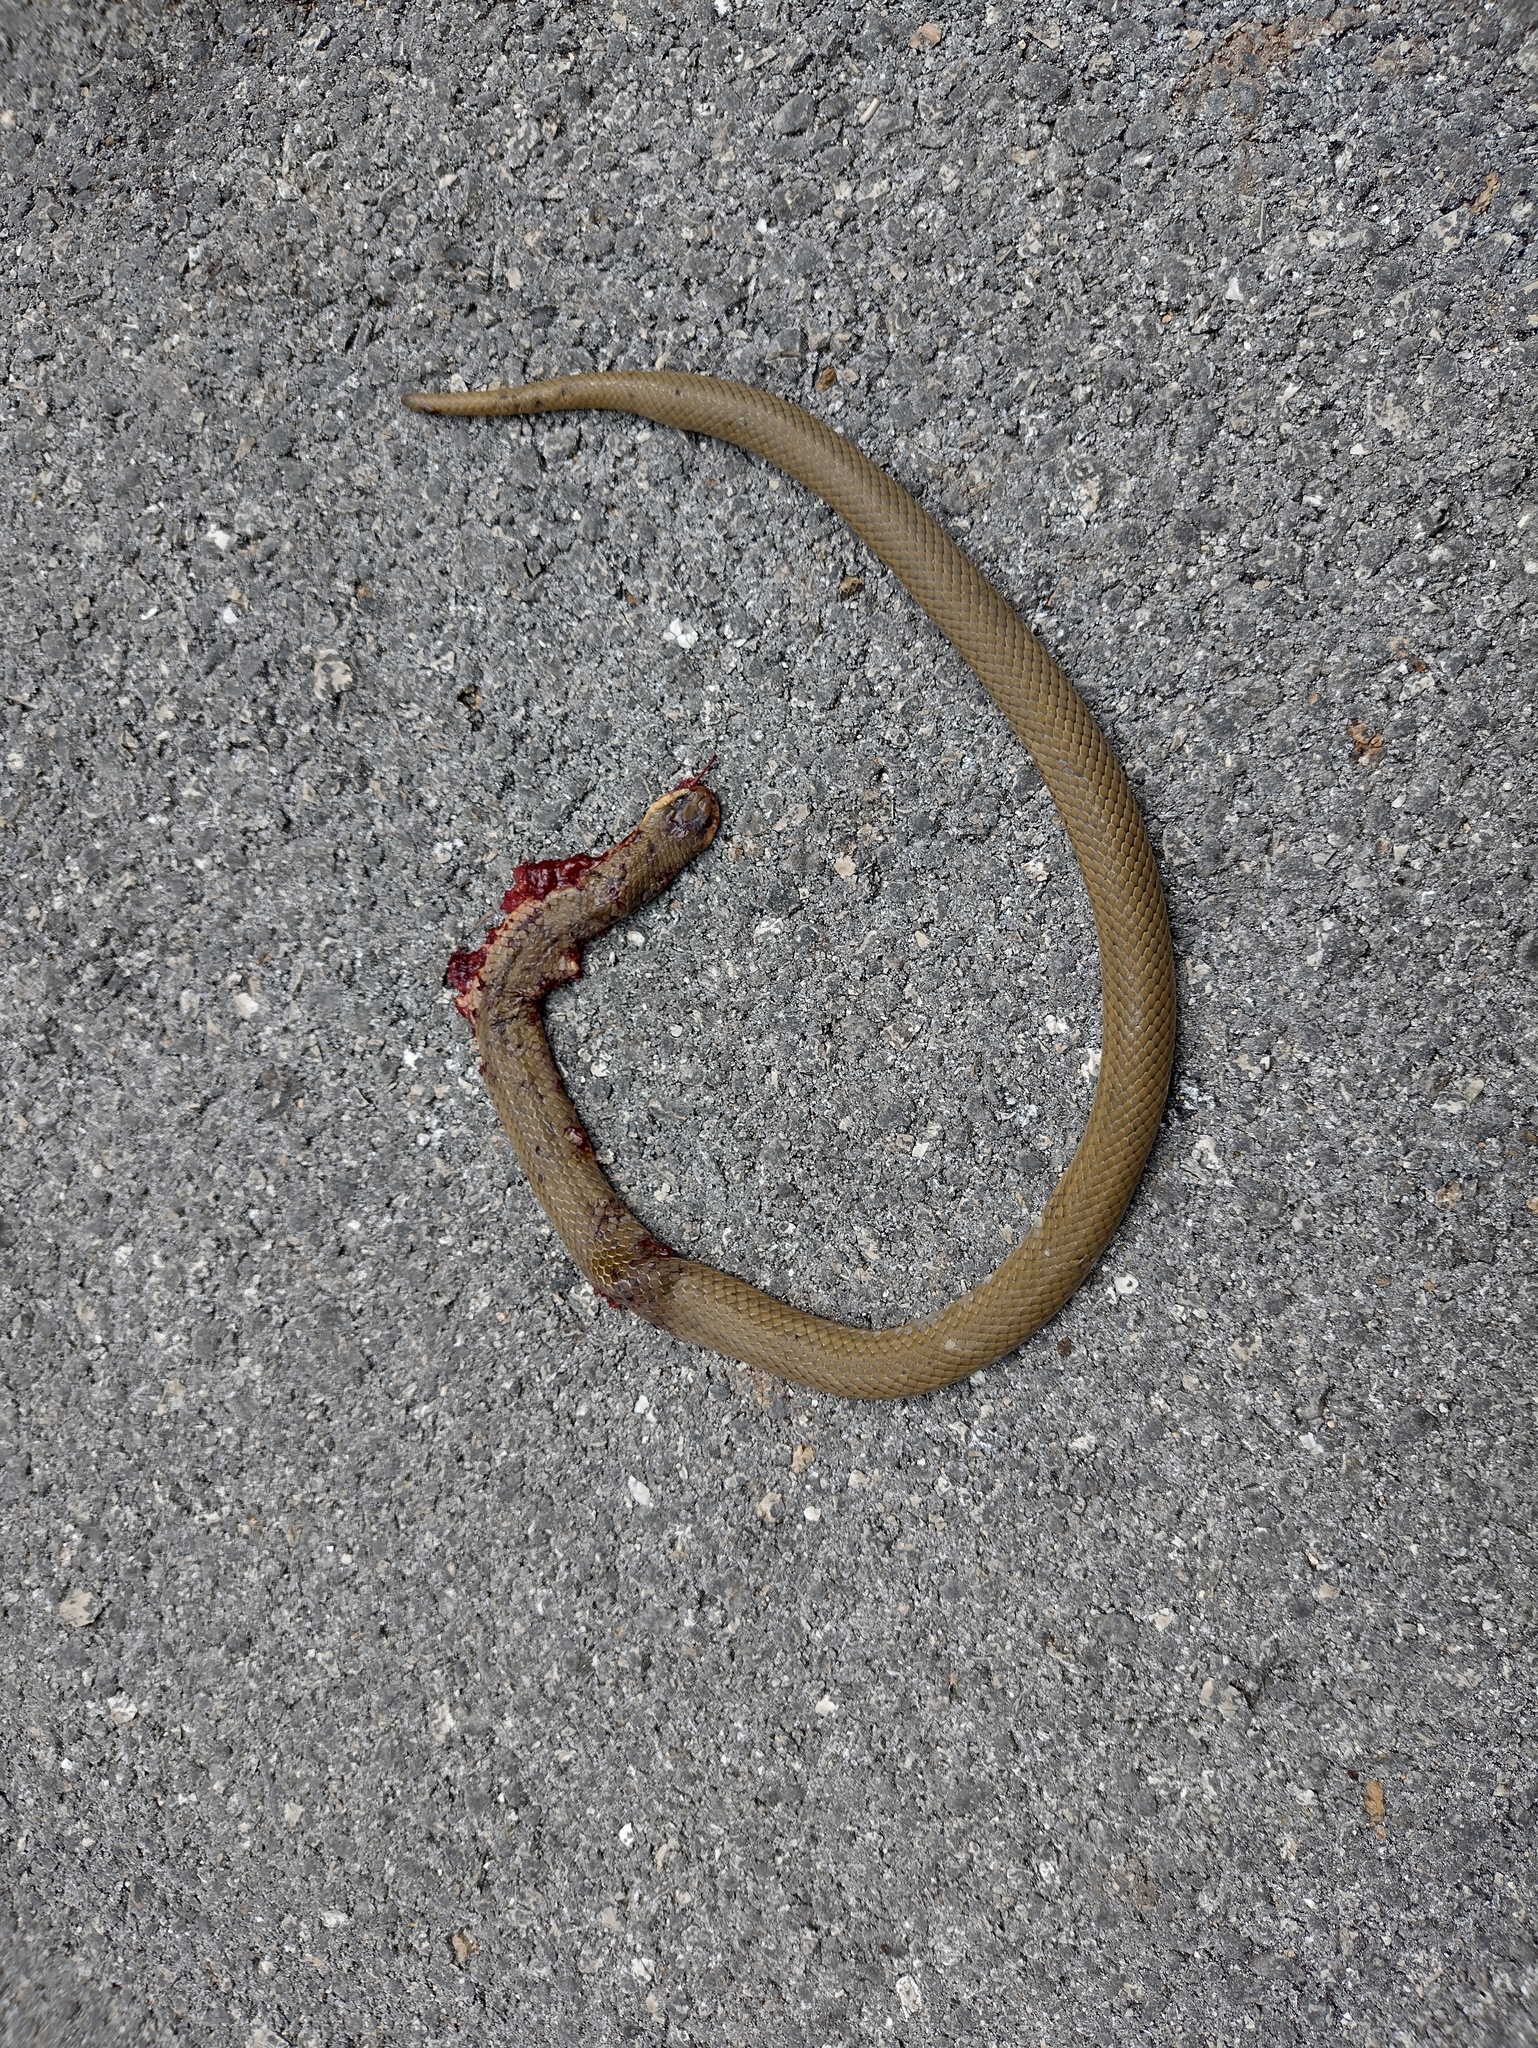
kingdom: Animalia
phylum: Chordata
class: Squamata
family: Colubridae
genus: Stenorrhina
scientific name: Stenorrhina freminvillei
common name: Blood snake
